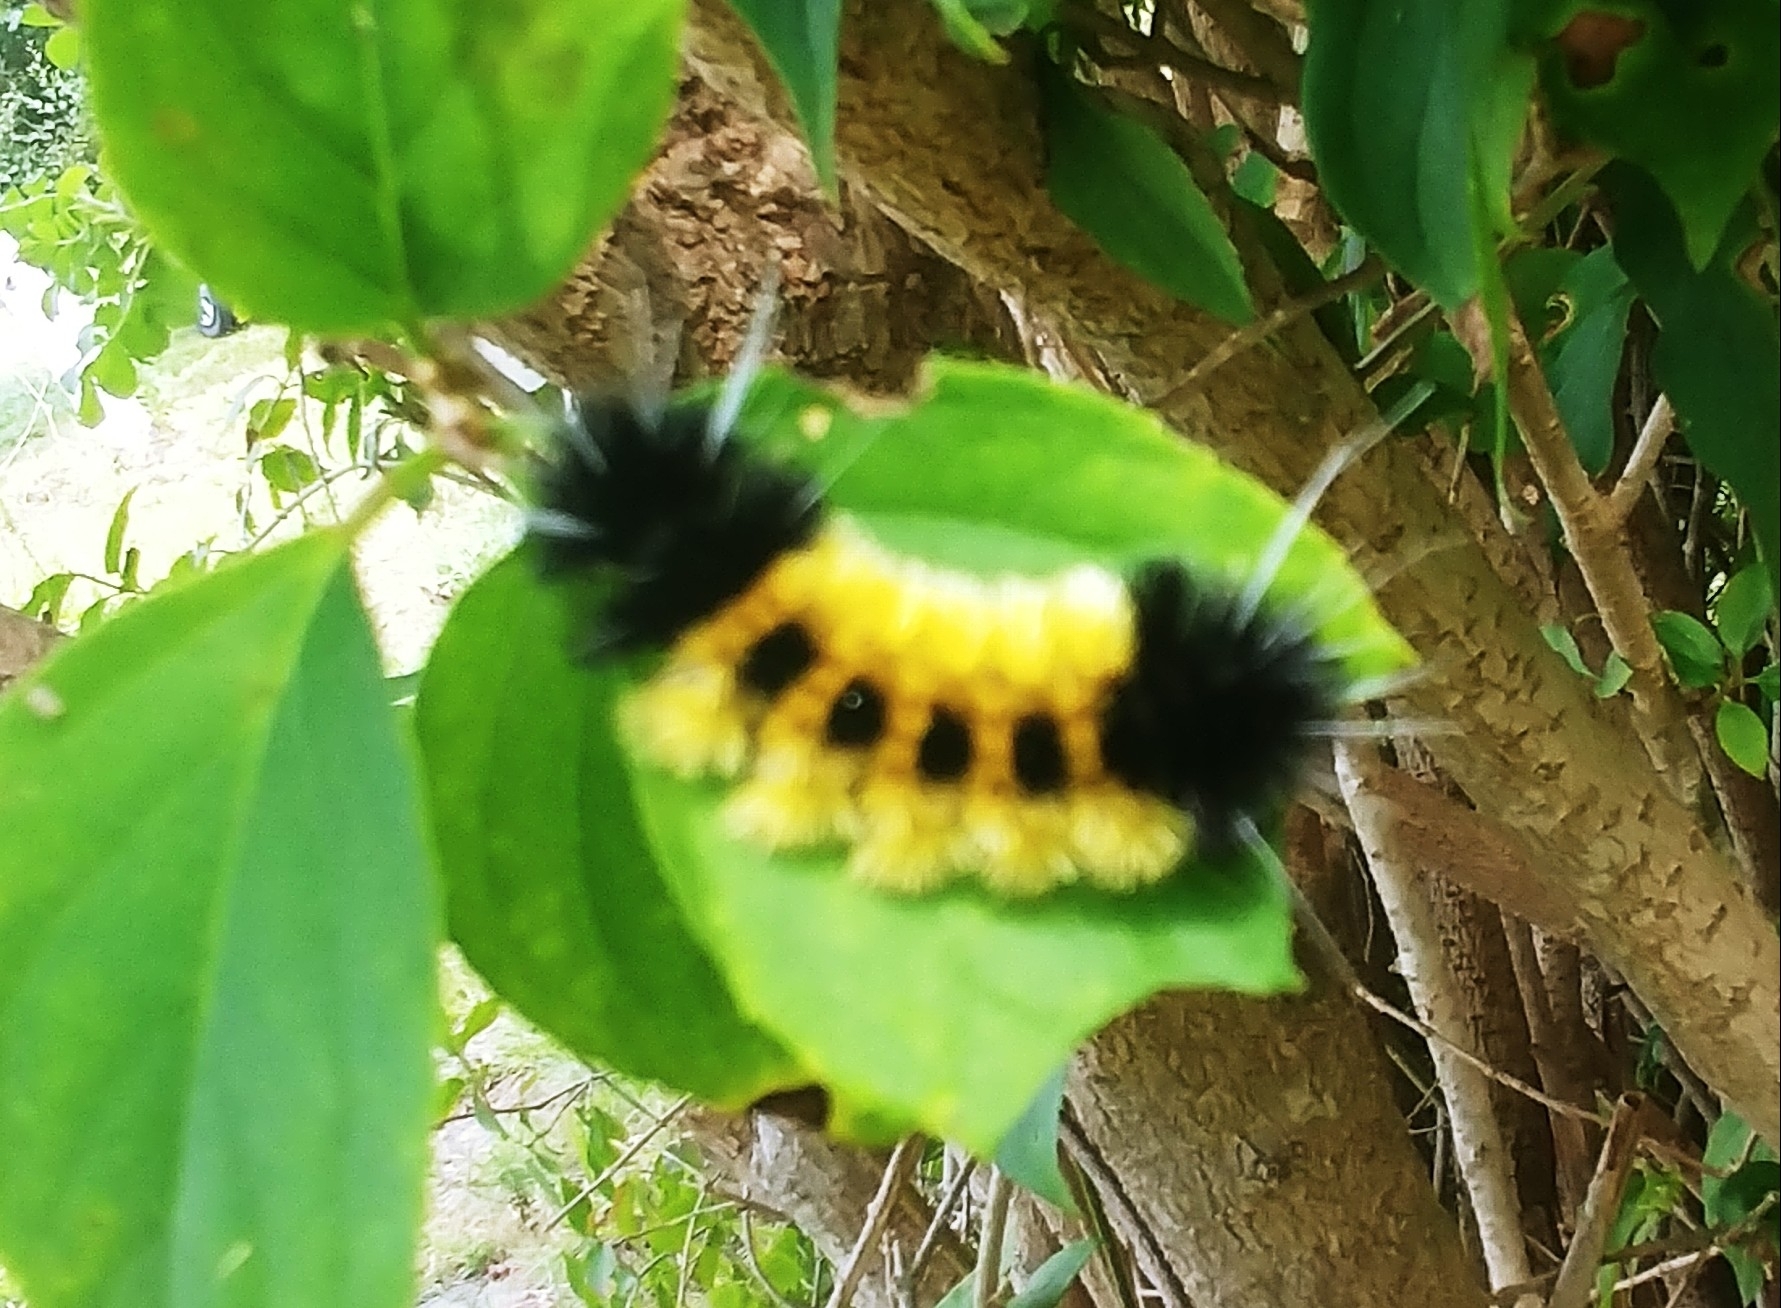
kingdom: Animalia
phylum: Arthropoda
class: Insecta
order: Lepidoptera
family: Erebidae
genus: Lophocampa
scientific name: Lophocampa maculata
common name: Spotted tussock moth
